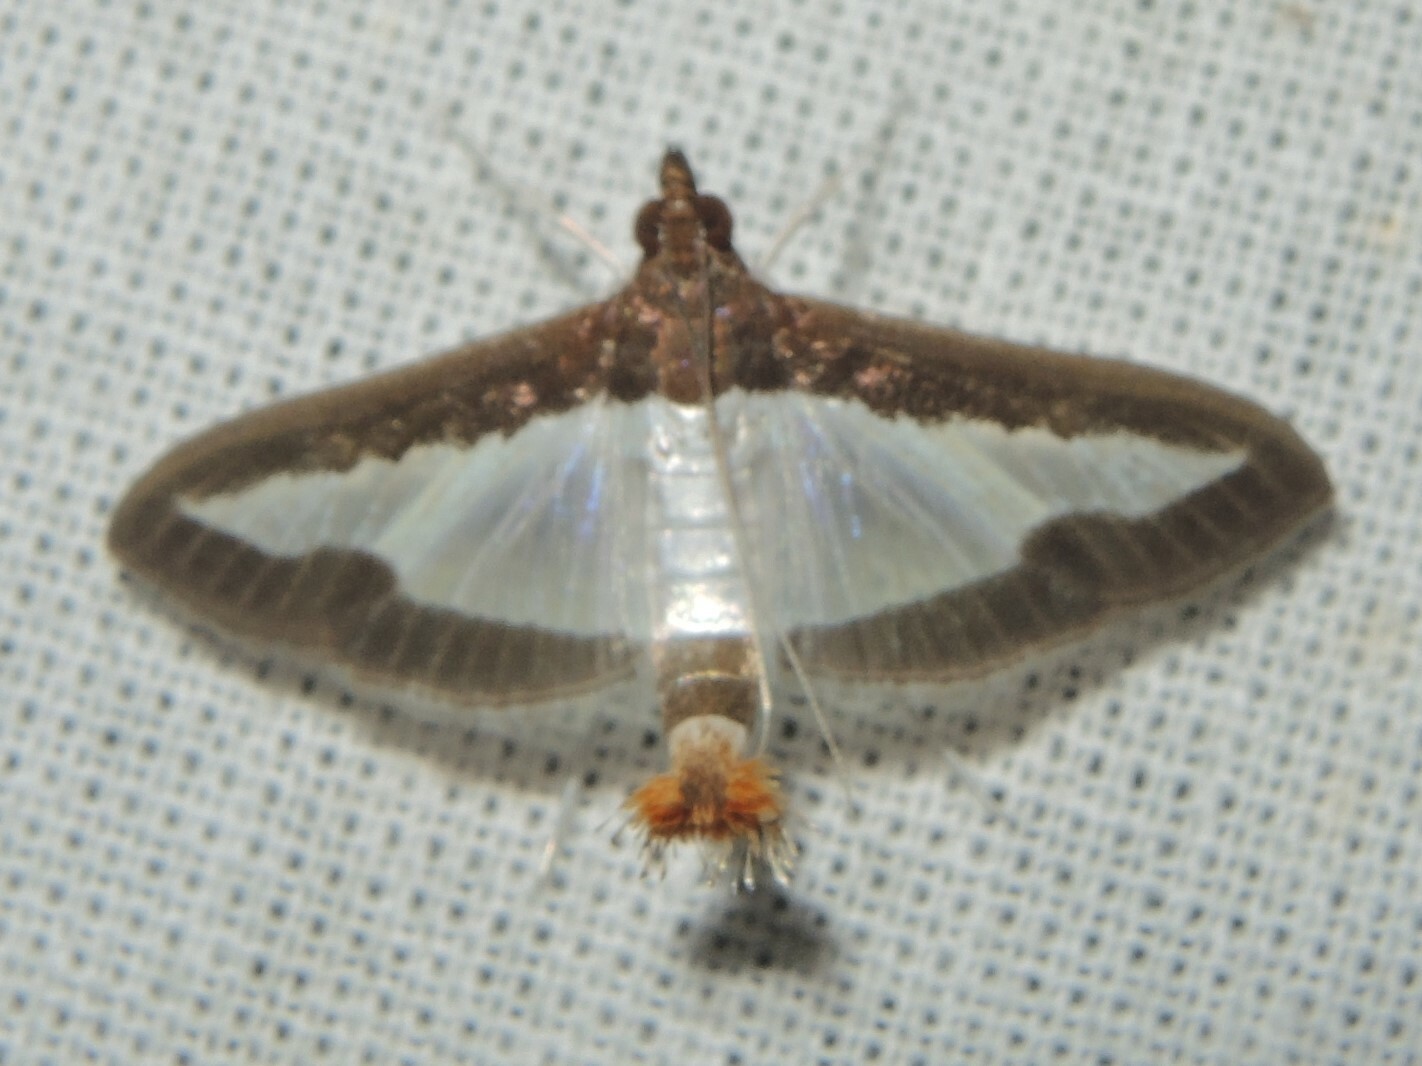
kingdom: Animalia
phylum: Arthropoda
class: Insecta
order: Lepidoptera
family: Crambidae
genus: Diaphania
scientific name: Diaphania indica
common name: Cucumber moth
